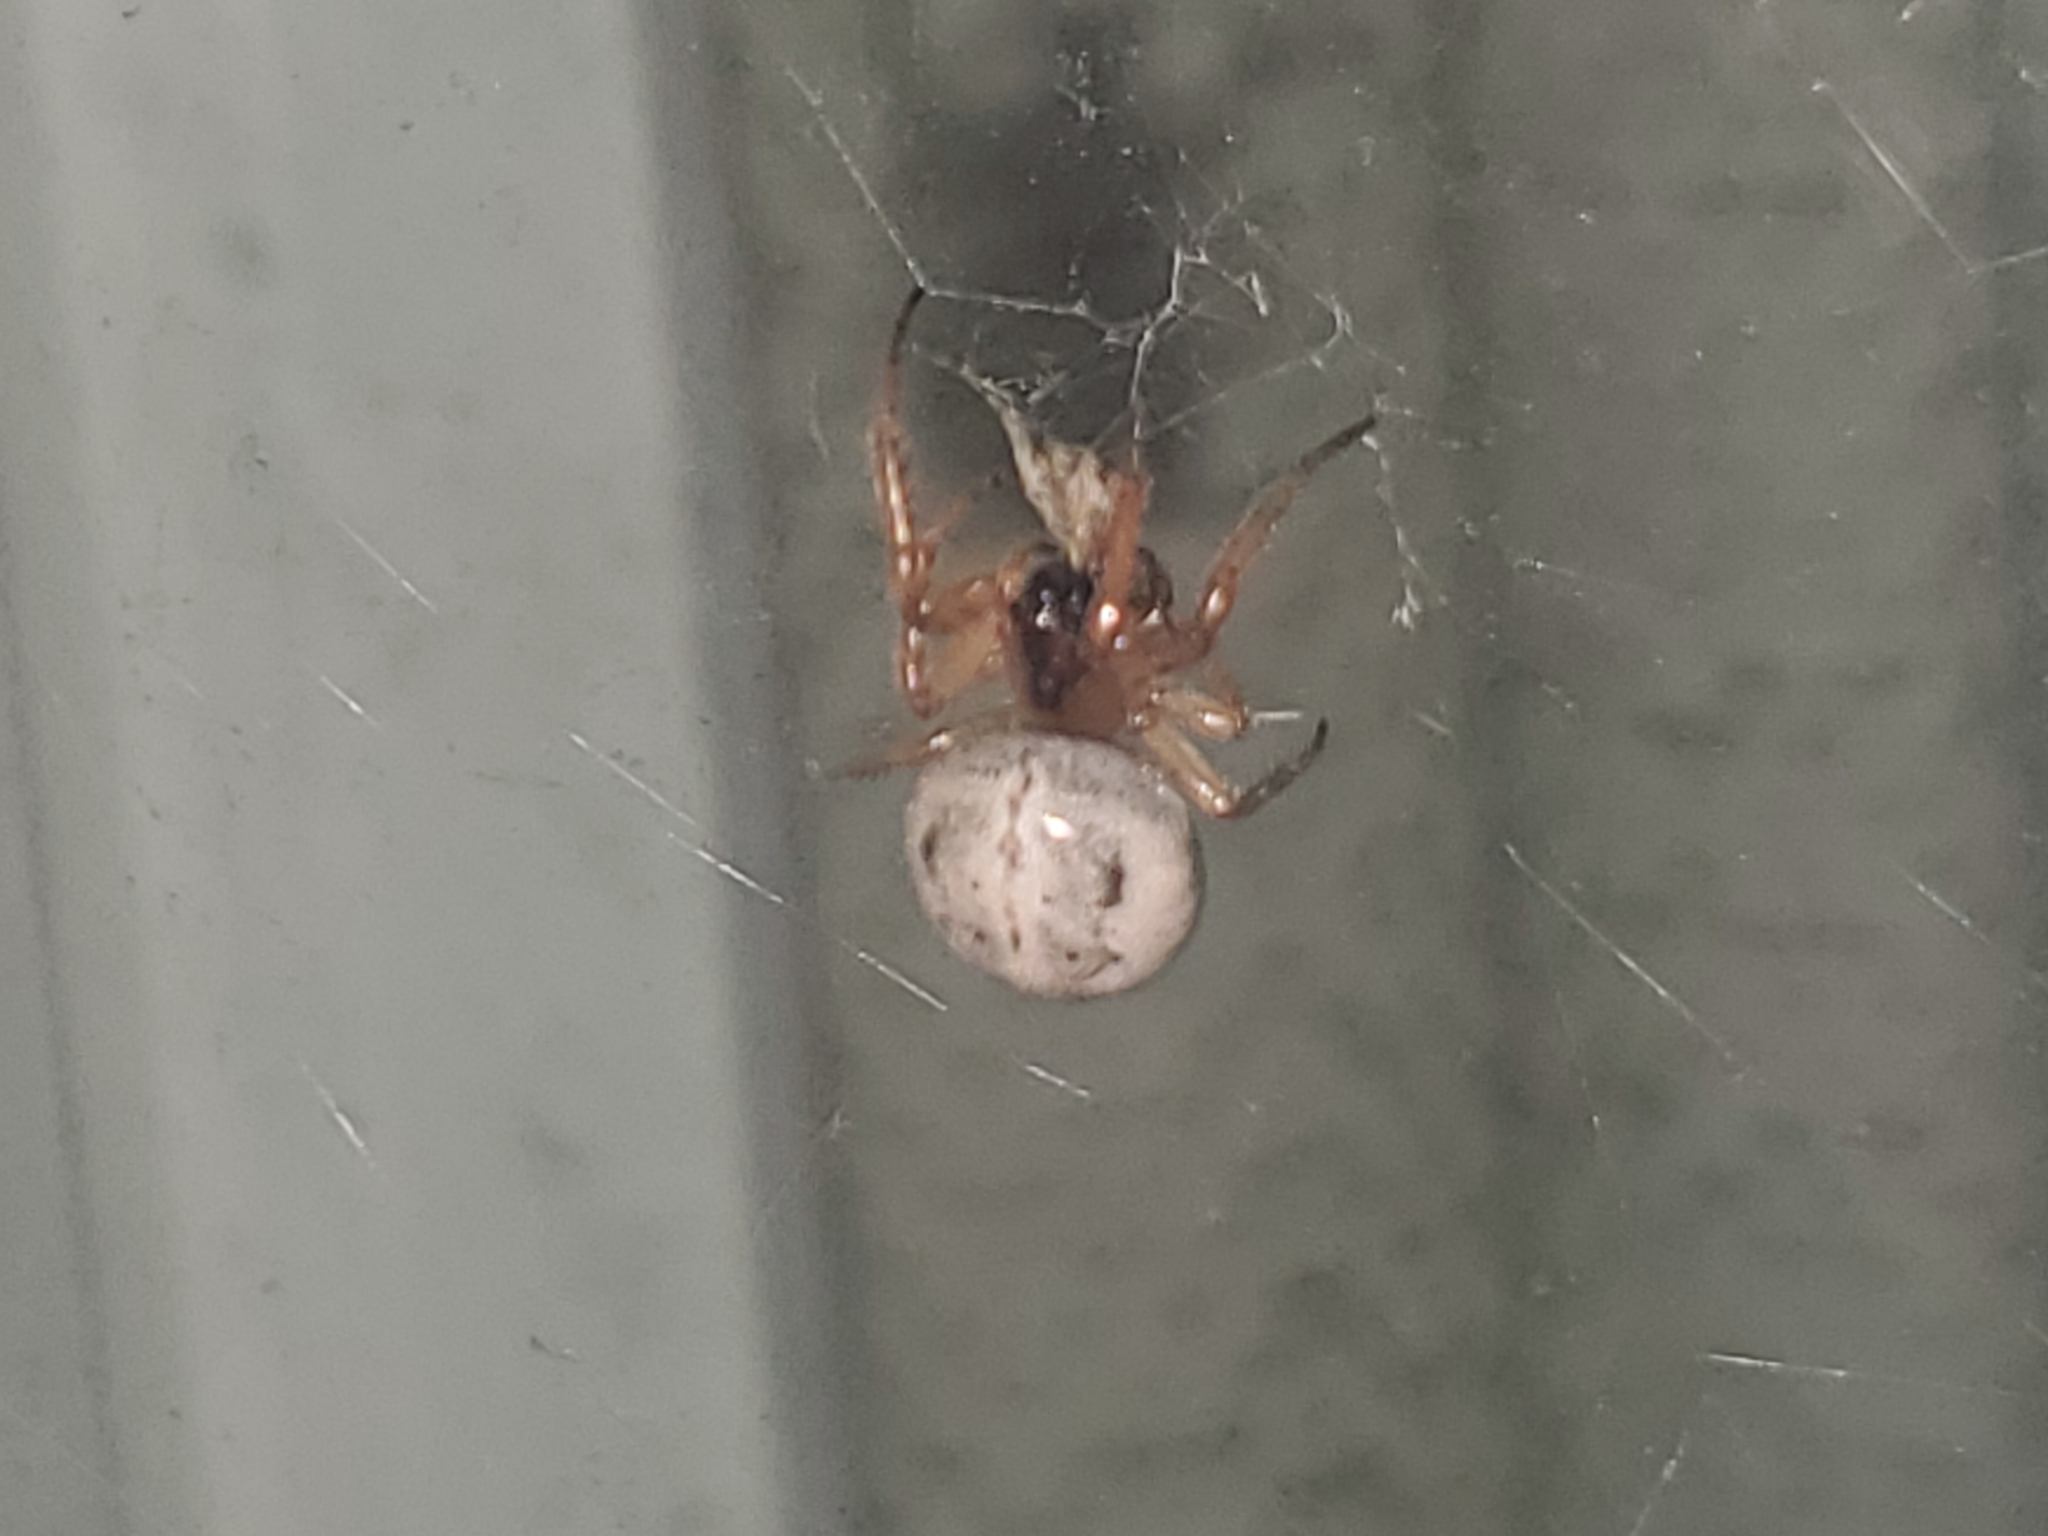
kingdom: Animalia
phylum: Arthropoda
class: Arachnida
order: Araneae
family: Araneidae
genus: Metazygia
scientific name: Metazygia wittfeldae
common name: Orb weavers
